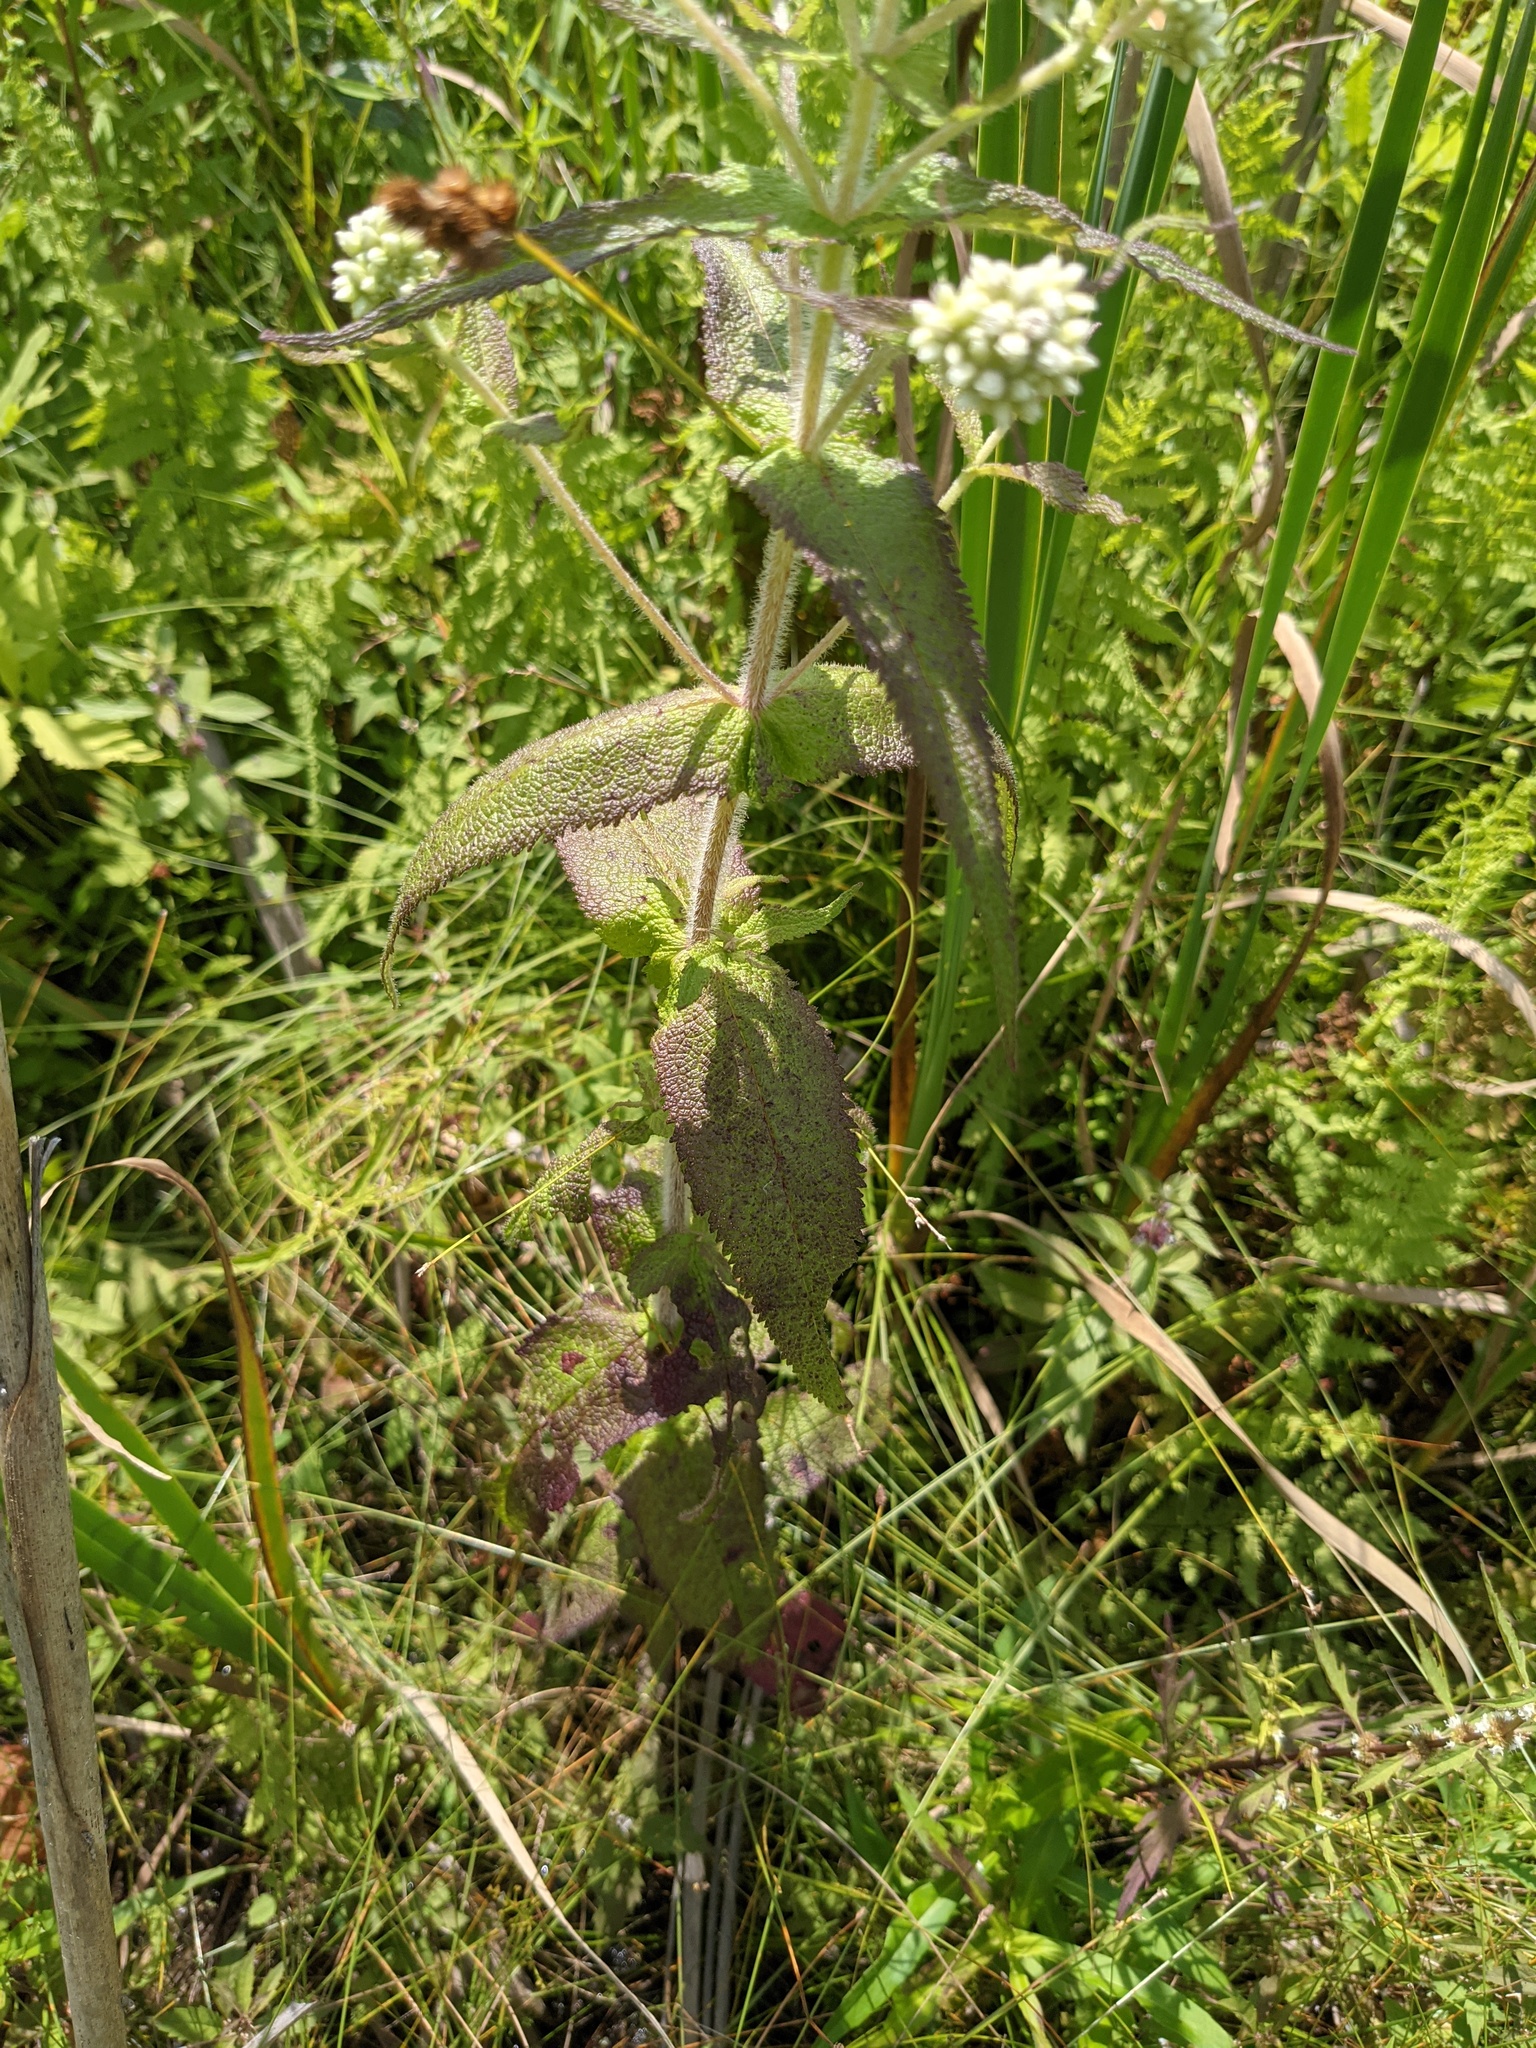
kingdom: Plantae
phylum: Tracheophyta
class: Magnoliopsida
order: Asterales
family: Asteraceae
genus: Eupatorium
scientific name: Eupatorium perfoliatum
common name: Boneset
